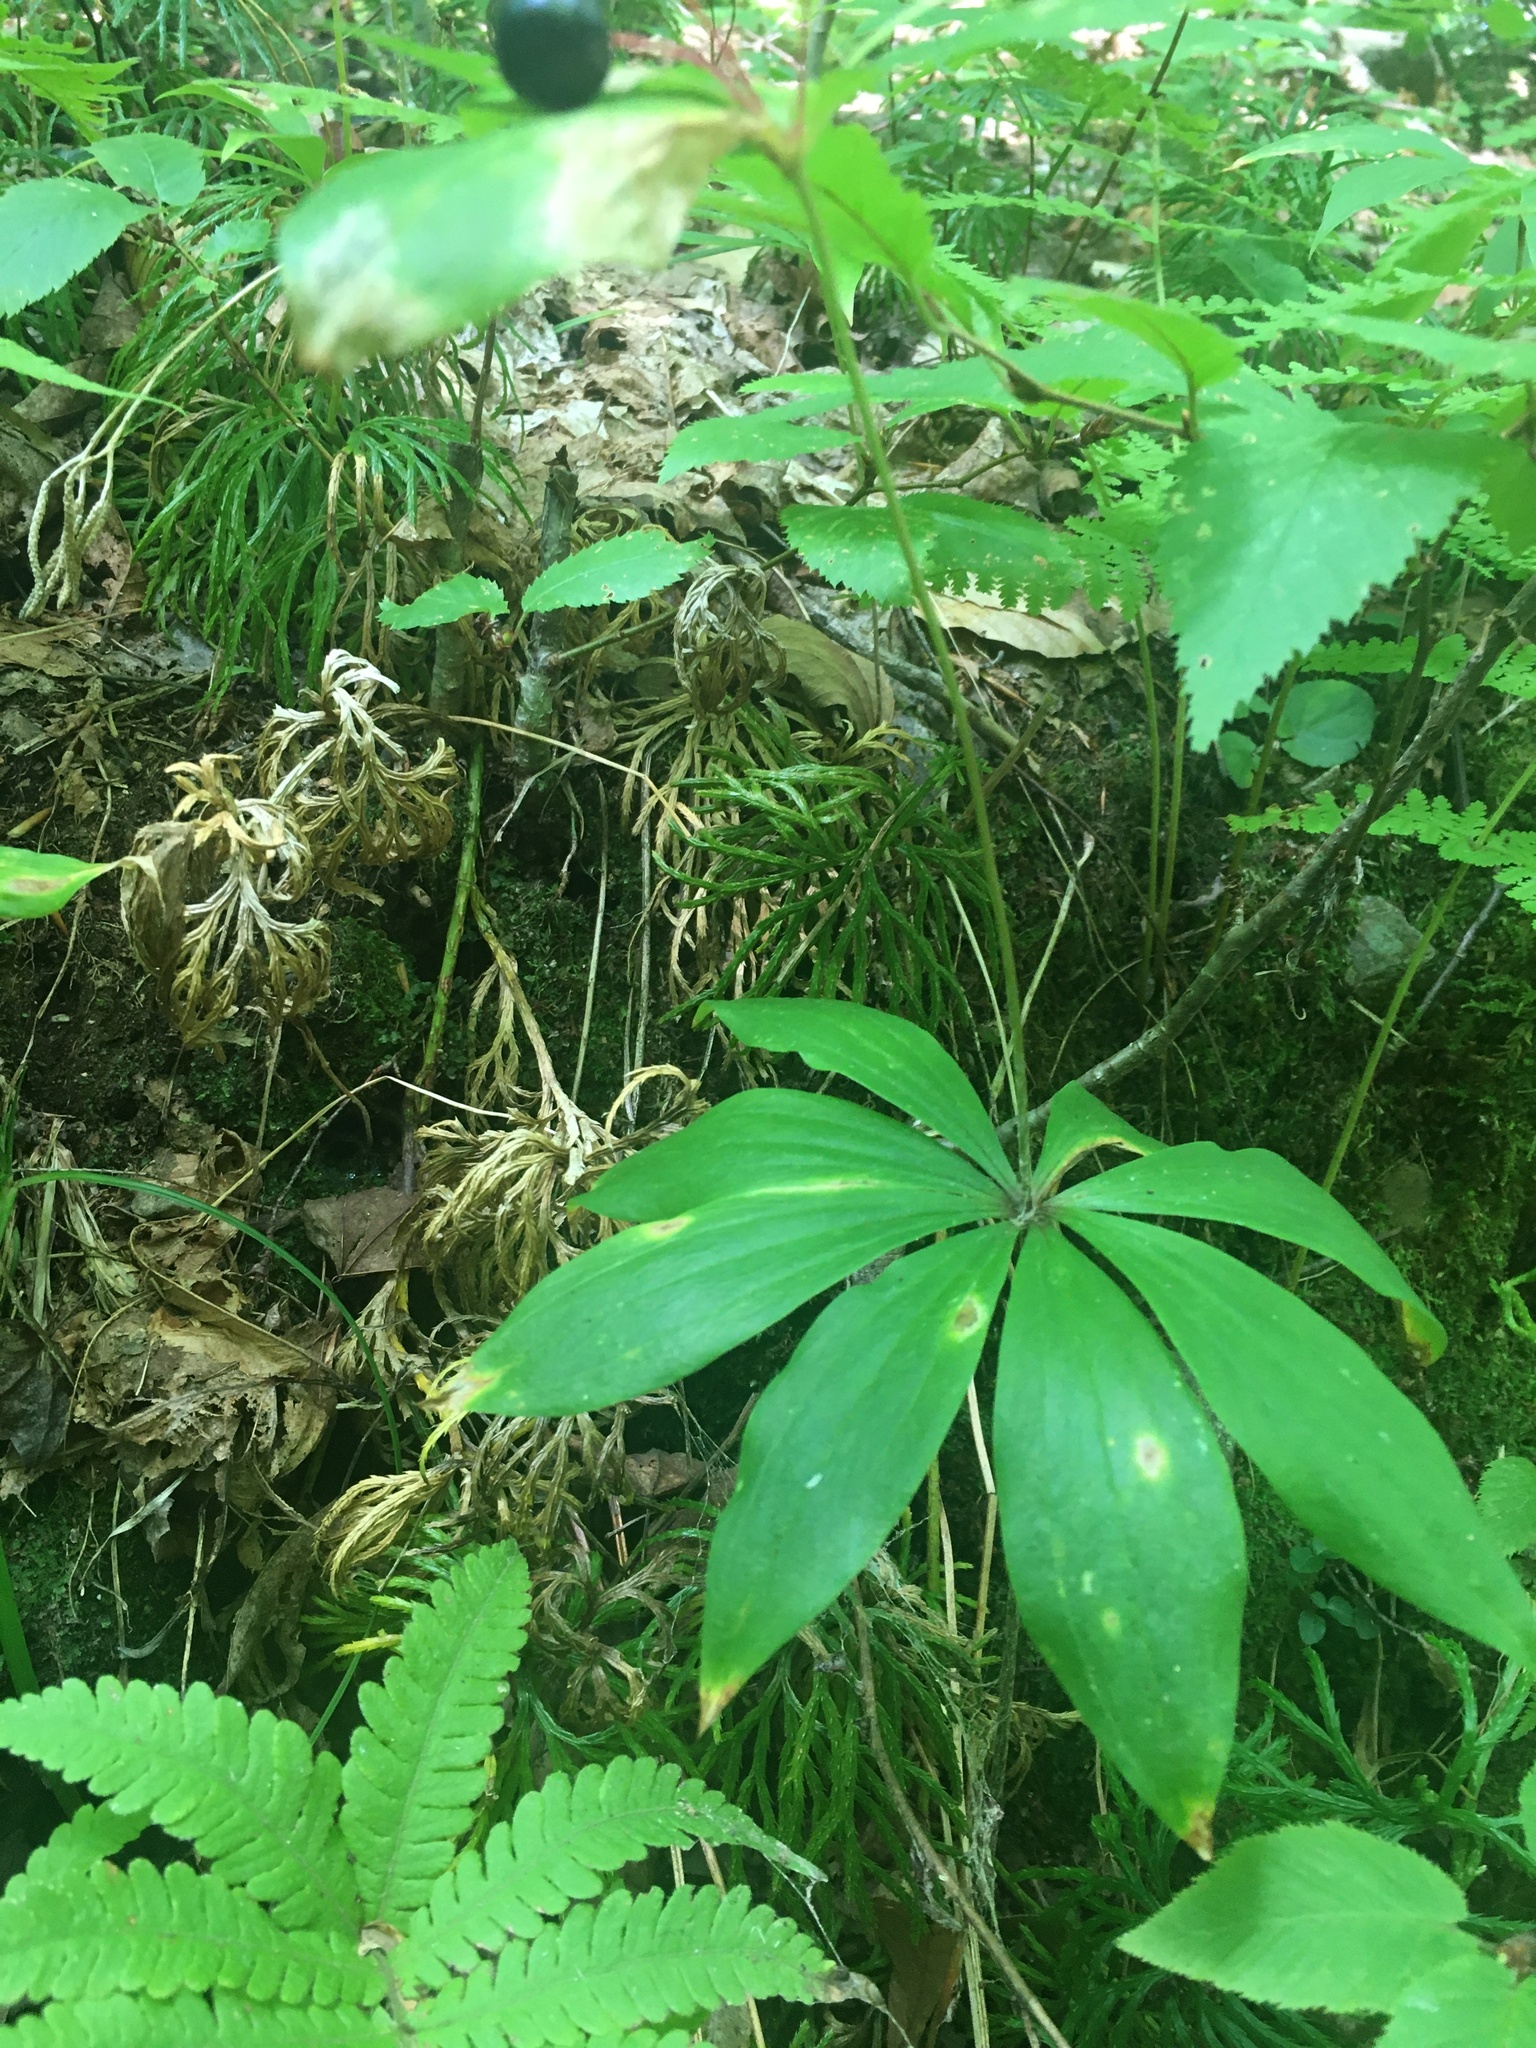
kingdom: Plantae
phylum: Tracheophyta
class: Liliopsida
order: Liliales
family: Liliaceae
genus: Medeola
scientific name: Medeola virginiana
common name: Indian cucumber-root
